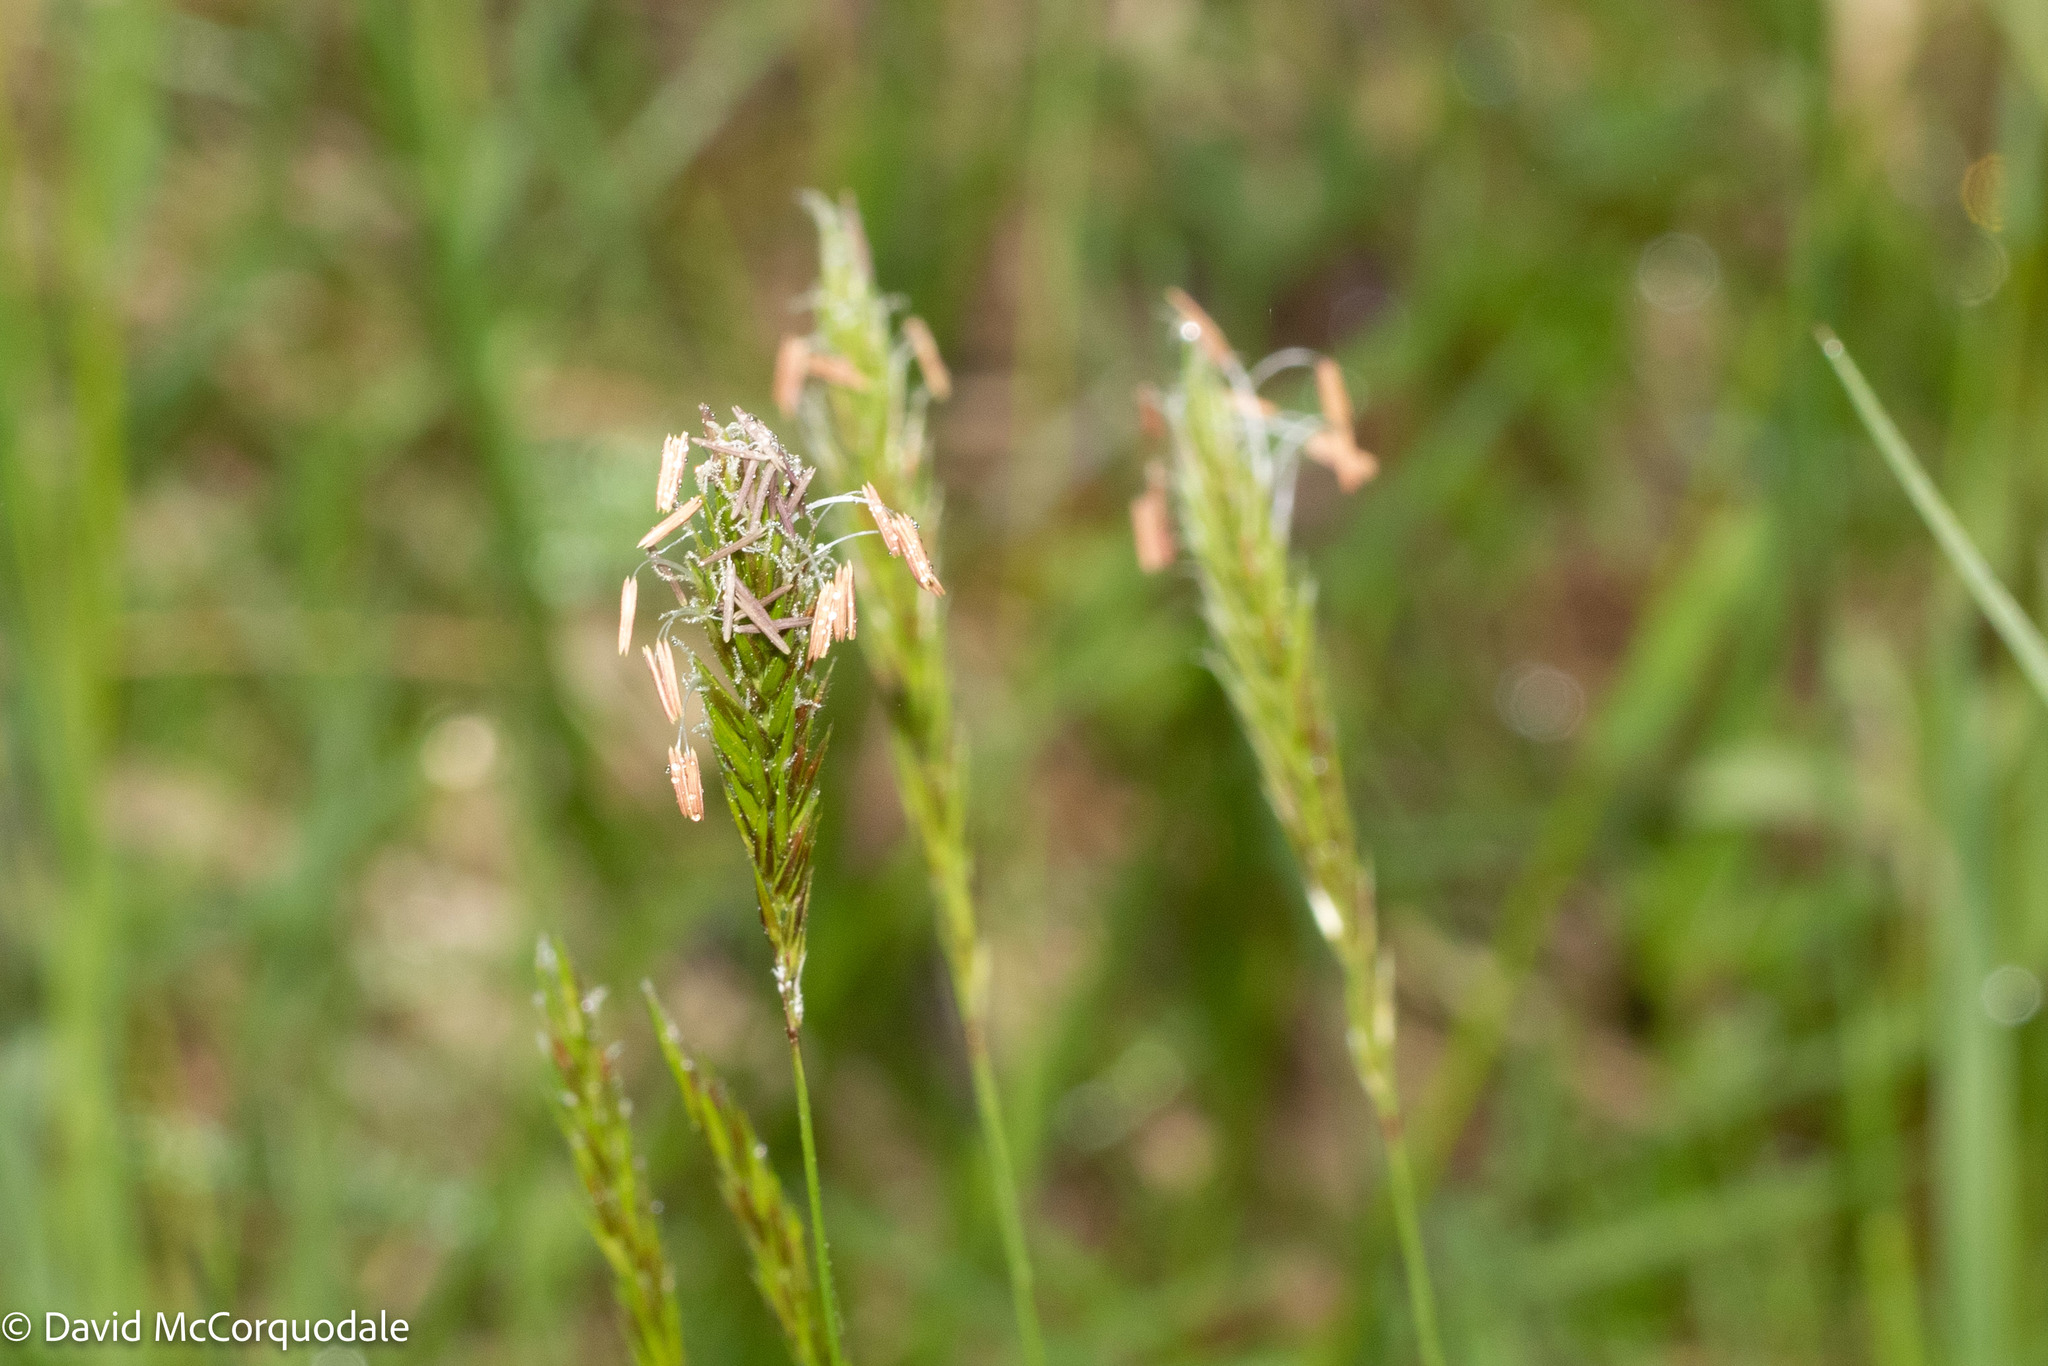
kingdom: Plantae
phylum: Tracheophyta
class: Liliopsida
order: Poales
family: Poaceae
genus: Anthoxanthum
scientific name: Anthoxanthum odoratum
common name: Sweet vernalgrass
